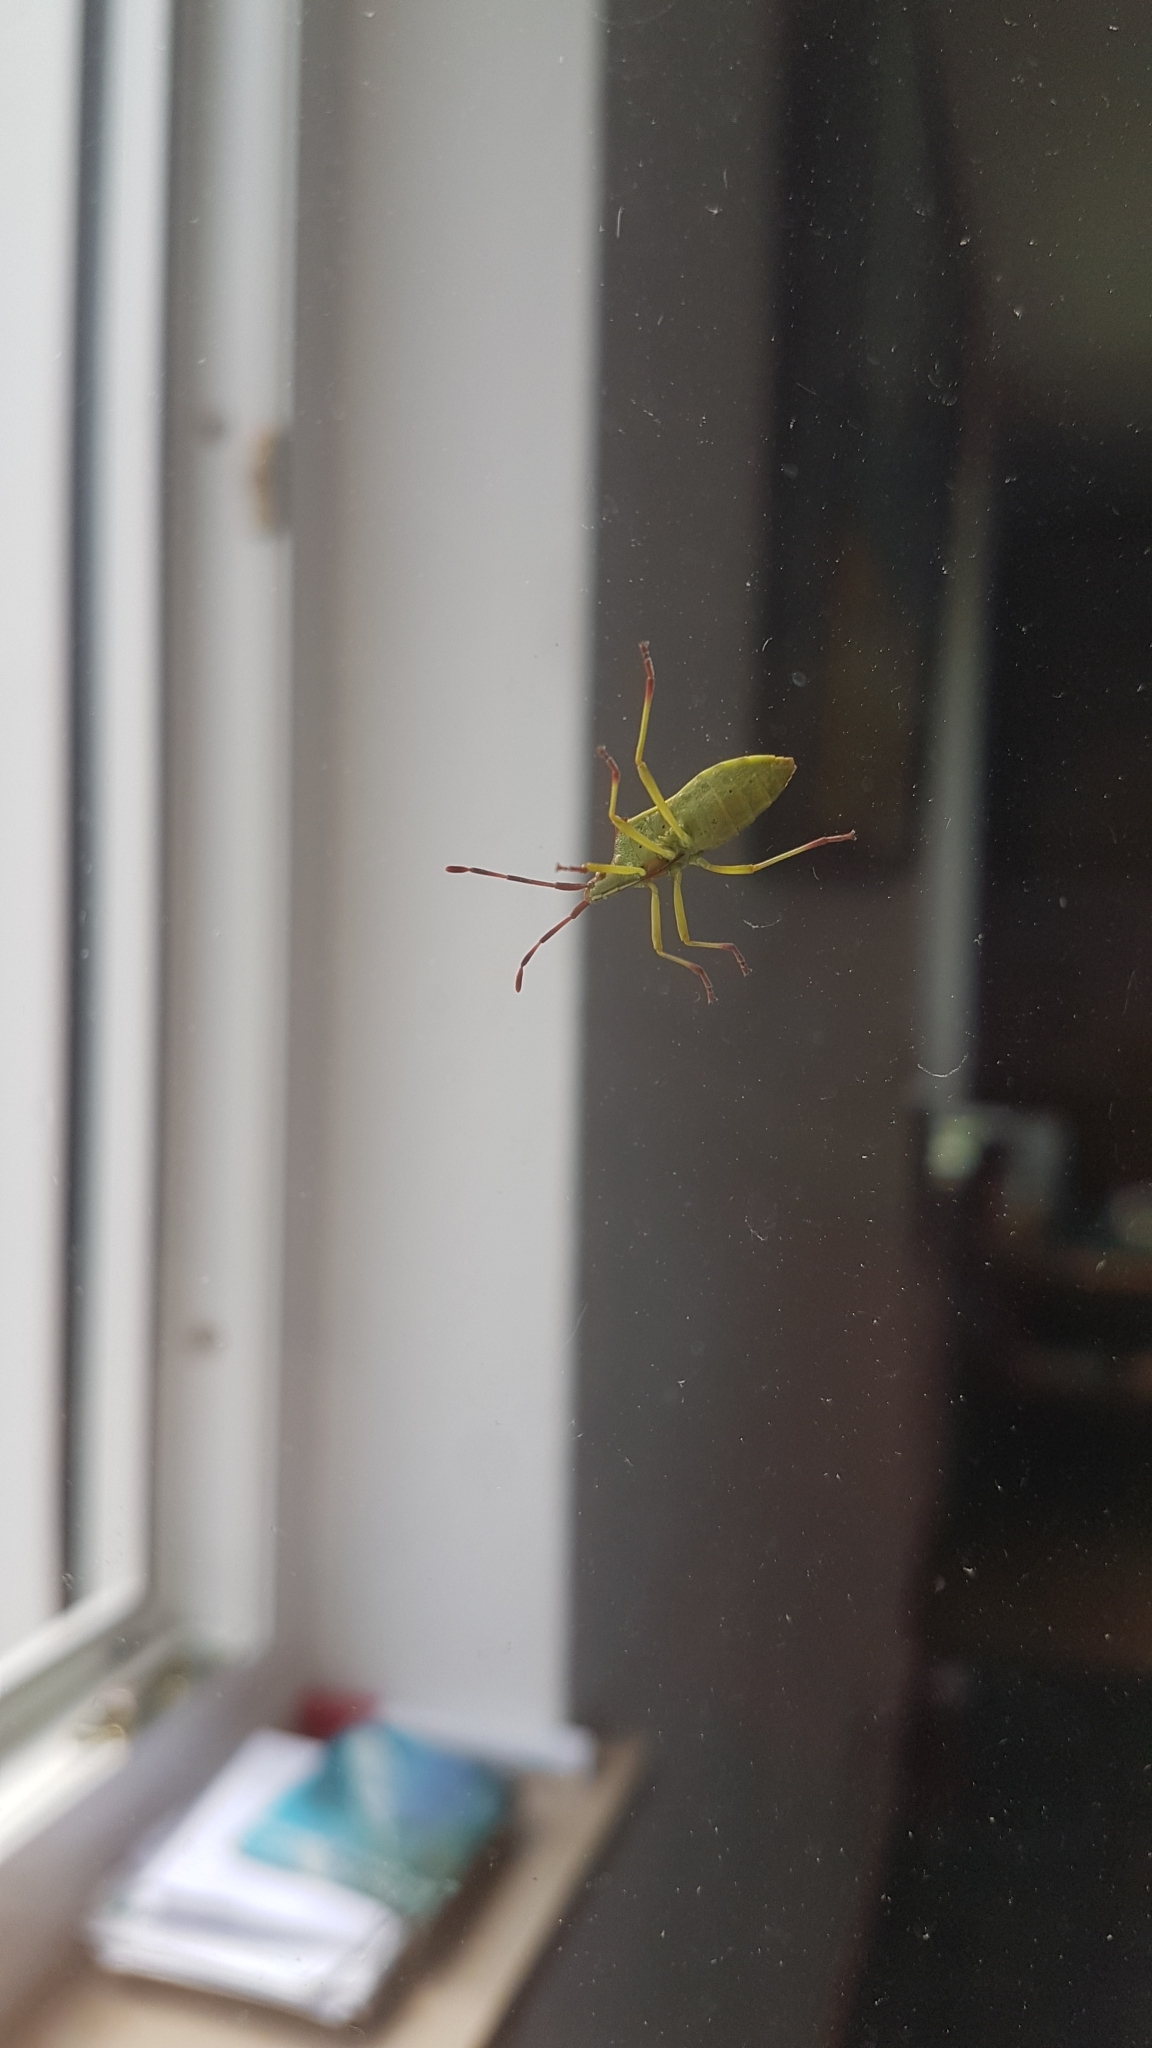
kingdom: Animalia
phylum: Arthropoda
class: Insecta
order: Hemiptera
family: Coreidae
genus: Gonocerus
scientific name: Gonocerus juniperi
